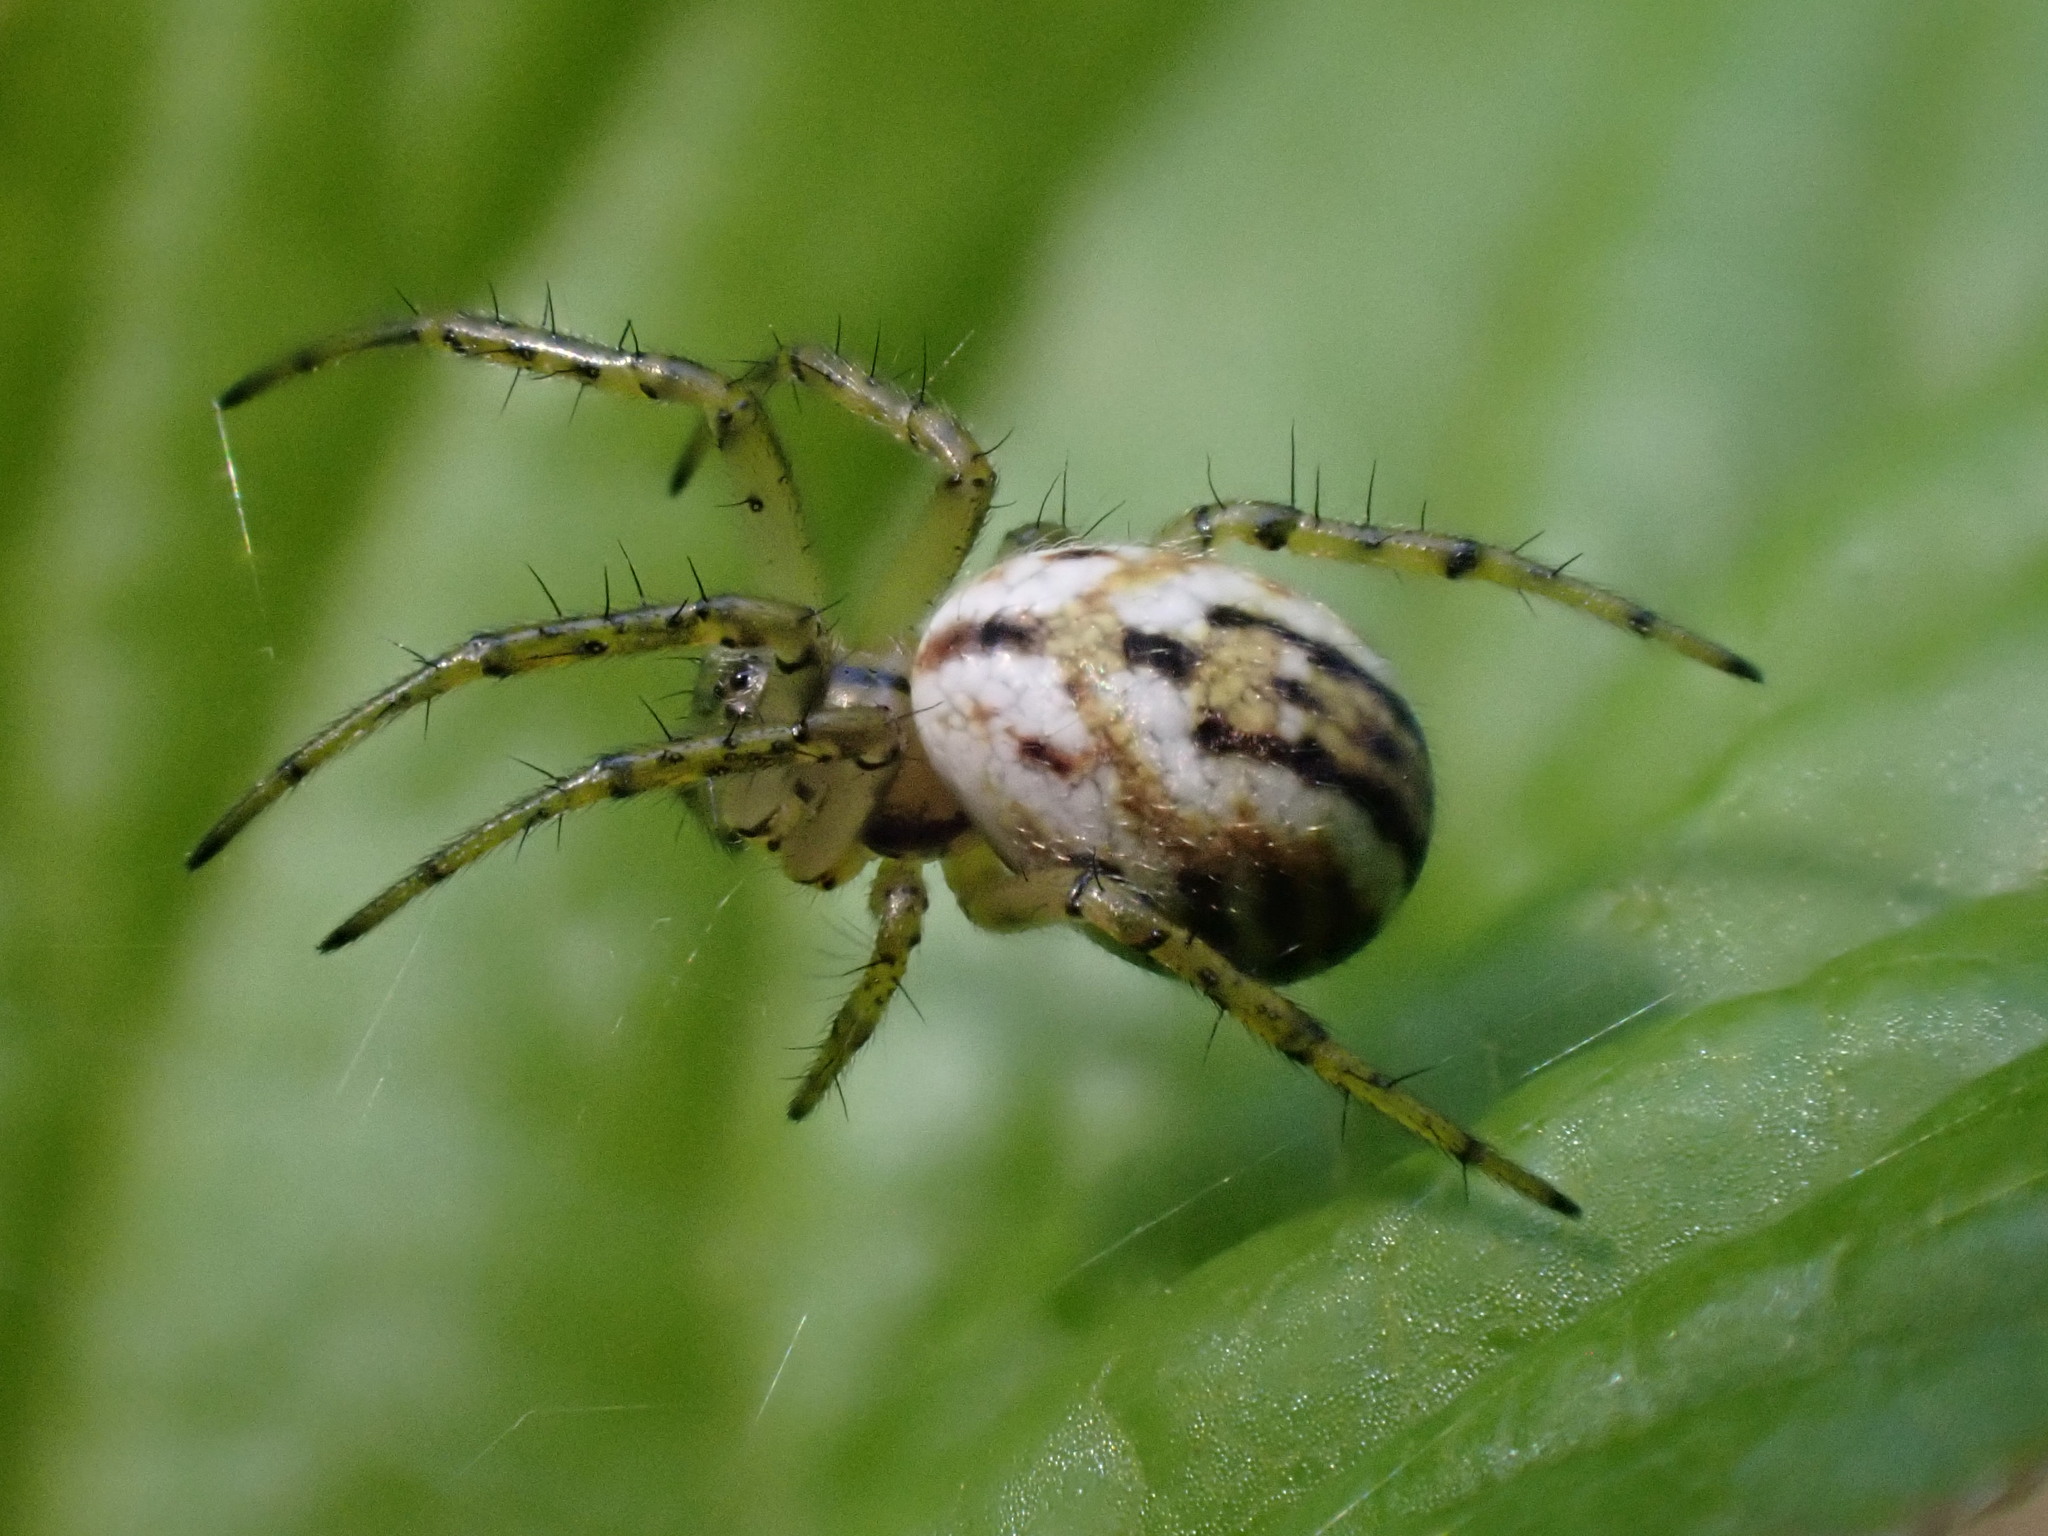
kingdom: Animalia
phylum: Arthropoda
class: Arachnida
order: Araneae
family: Araneidae
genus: Mangora
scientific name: Mangora acalypha
